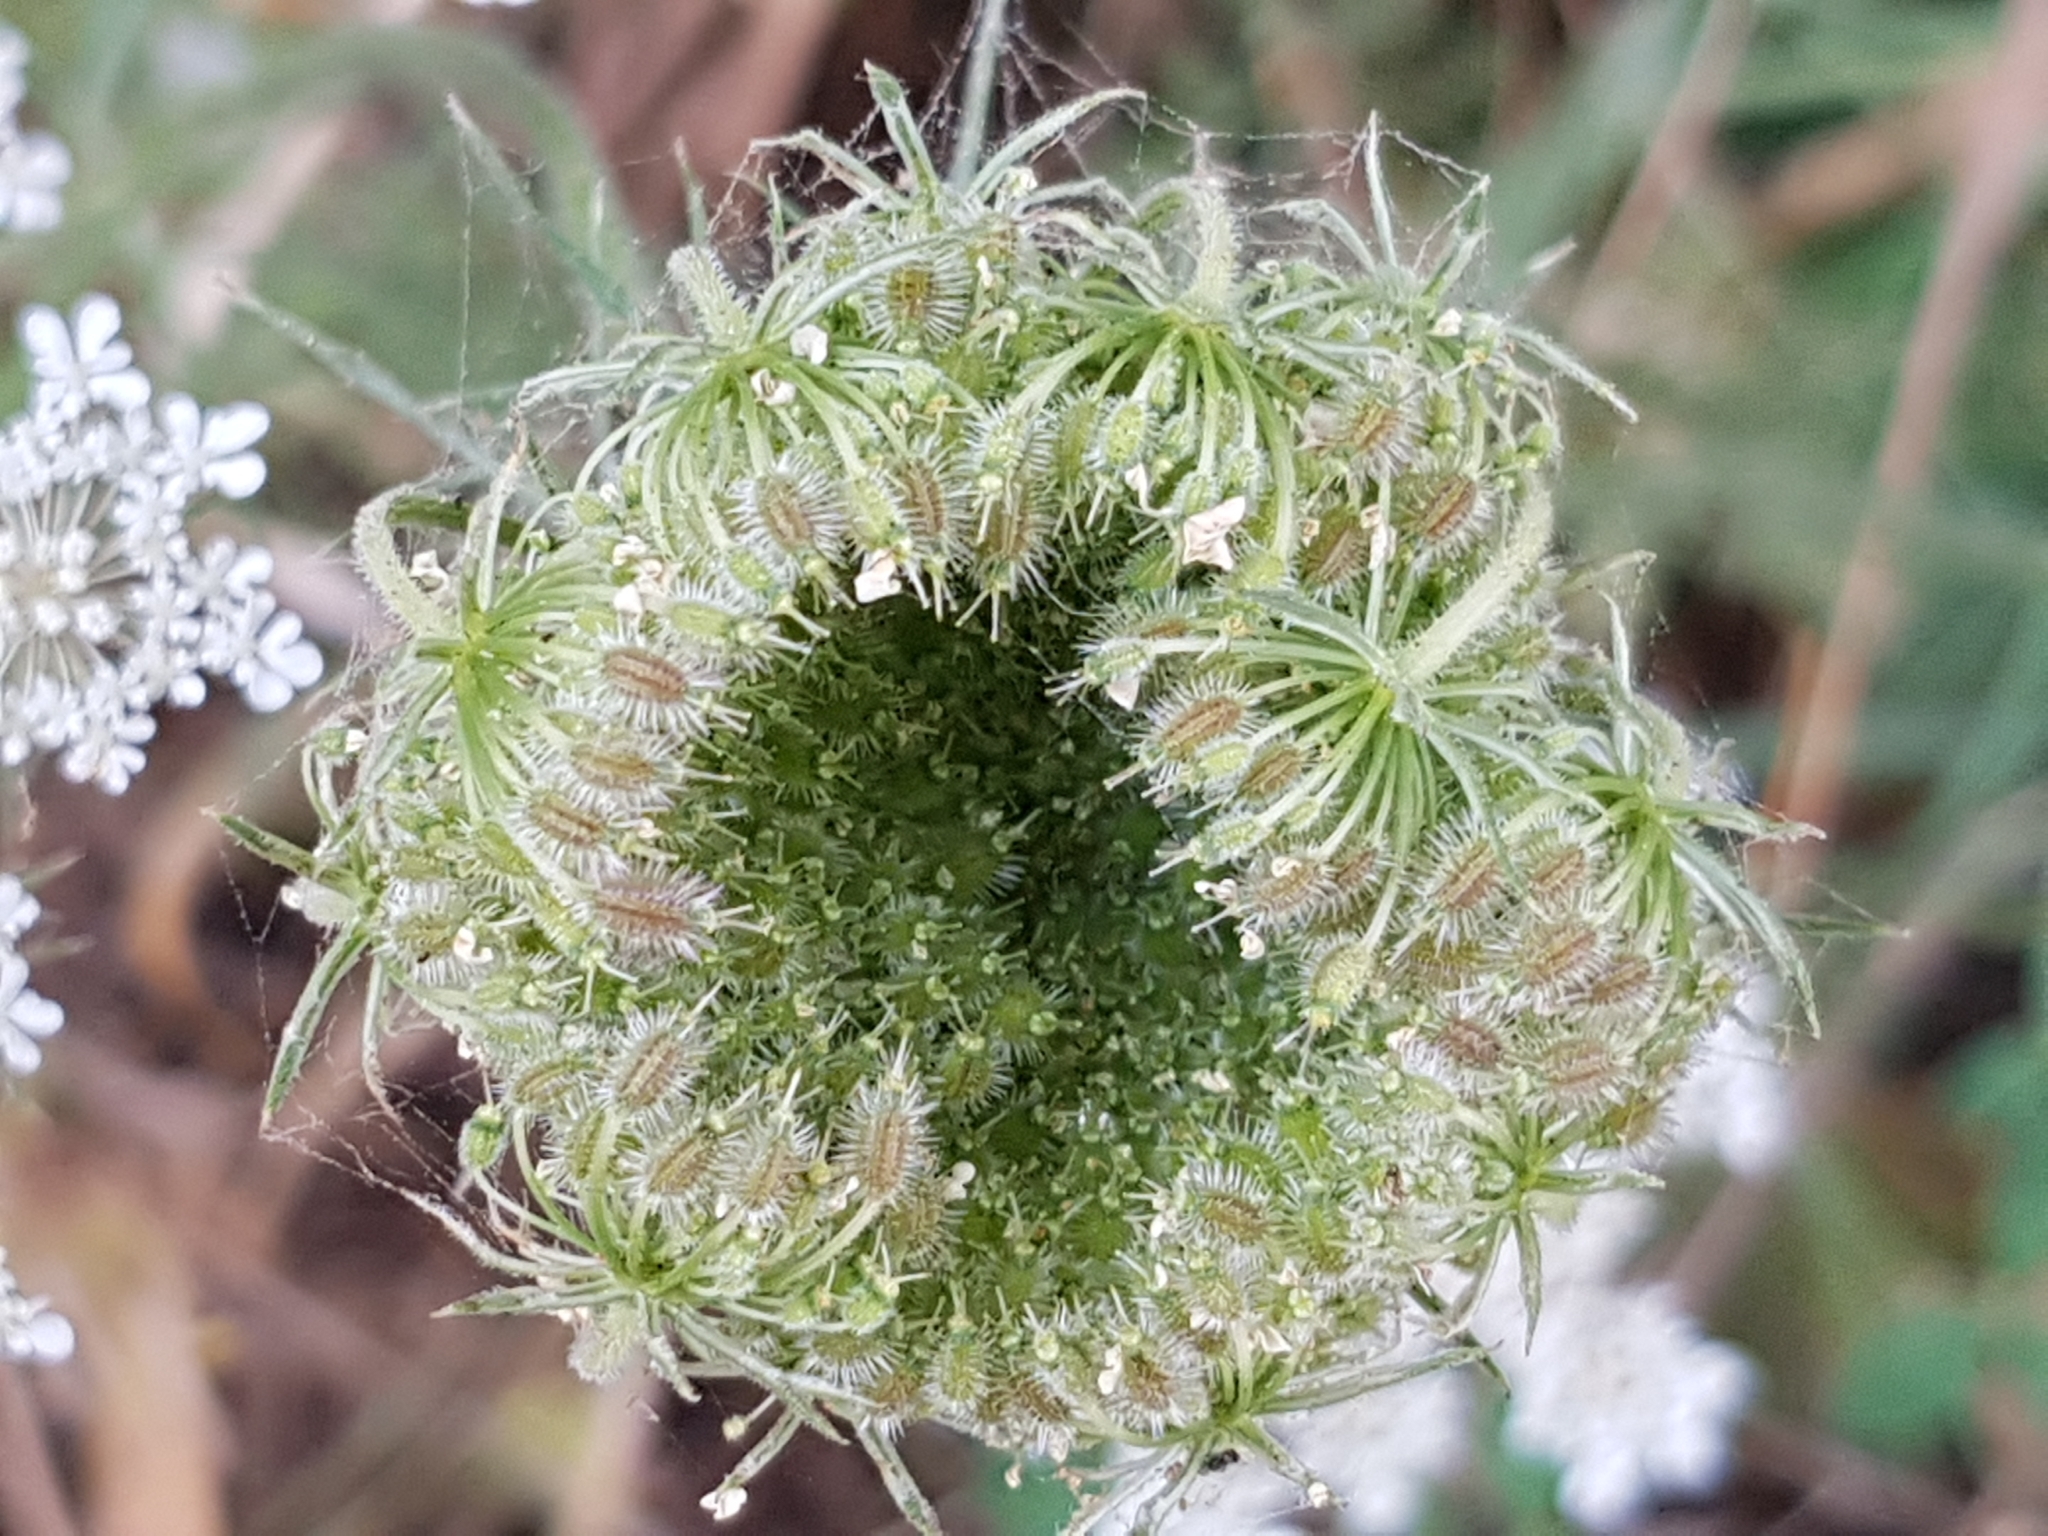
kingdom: Plantae
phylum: Tracheophyta
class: Magnoliopsida
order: Apiales
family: Apiaceae
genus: Daucus
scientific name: Daucus carota
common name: Wild carrot
